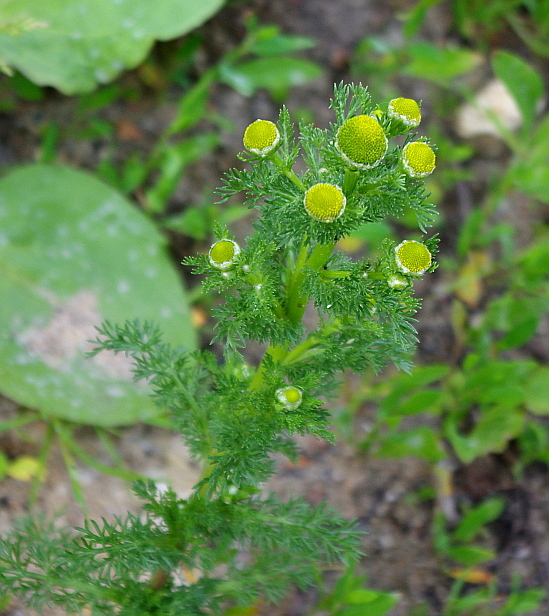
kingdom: Plantae
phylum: Tracheophyta
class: Magnoliopsida
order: Asterales
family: Asteraceae
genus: Matricaria
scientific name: Matricaria discoidea
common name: Disc mayweed
